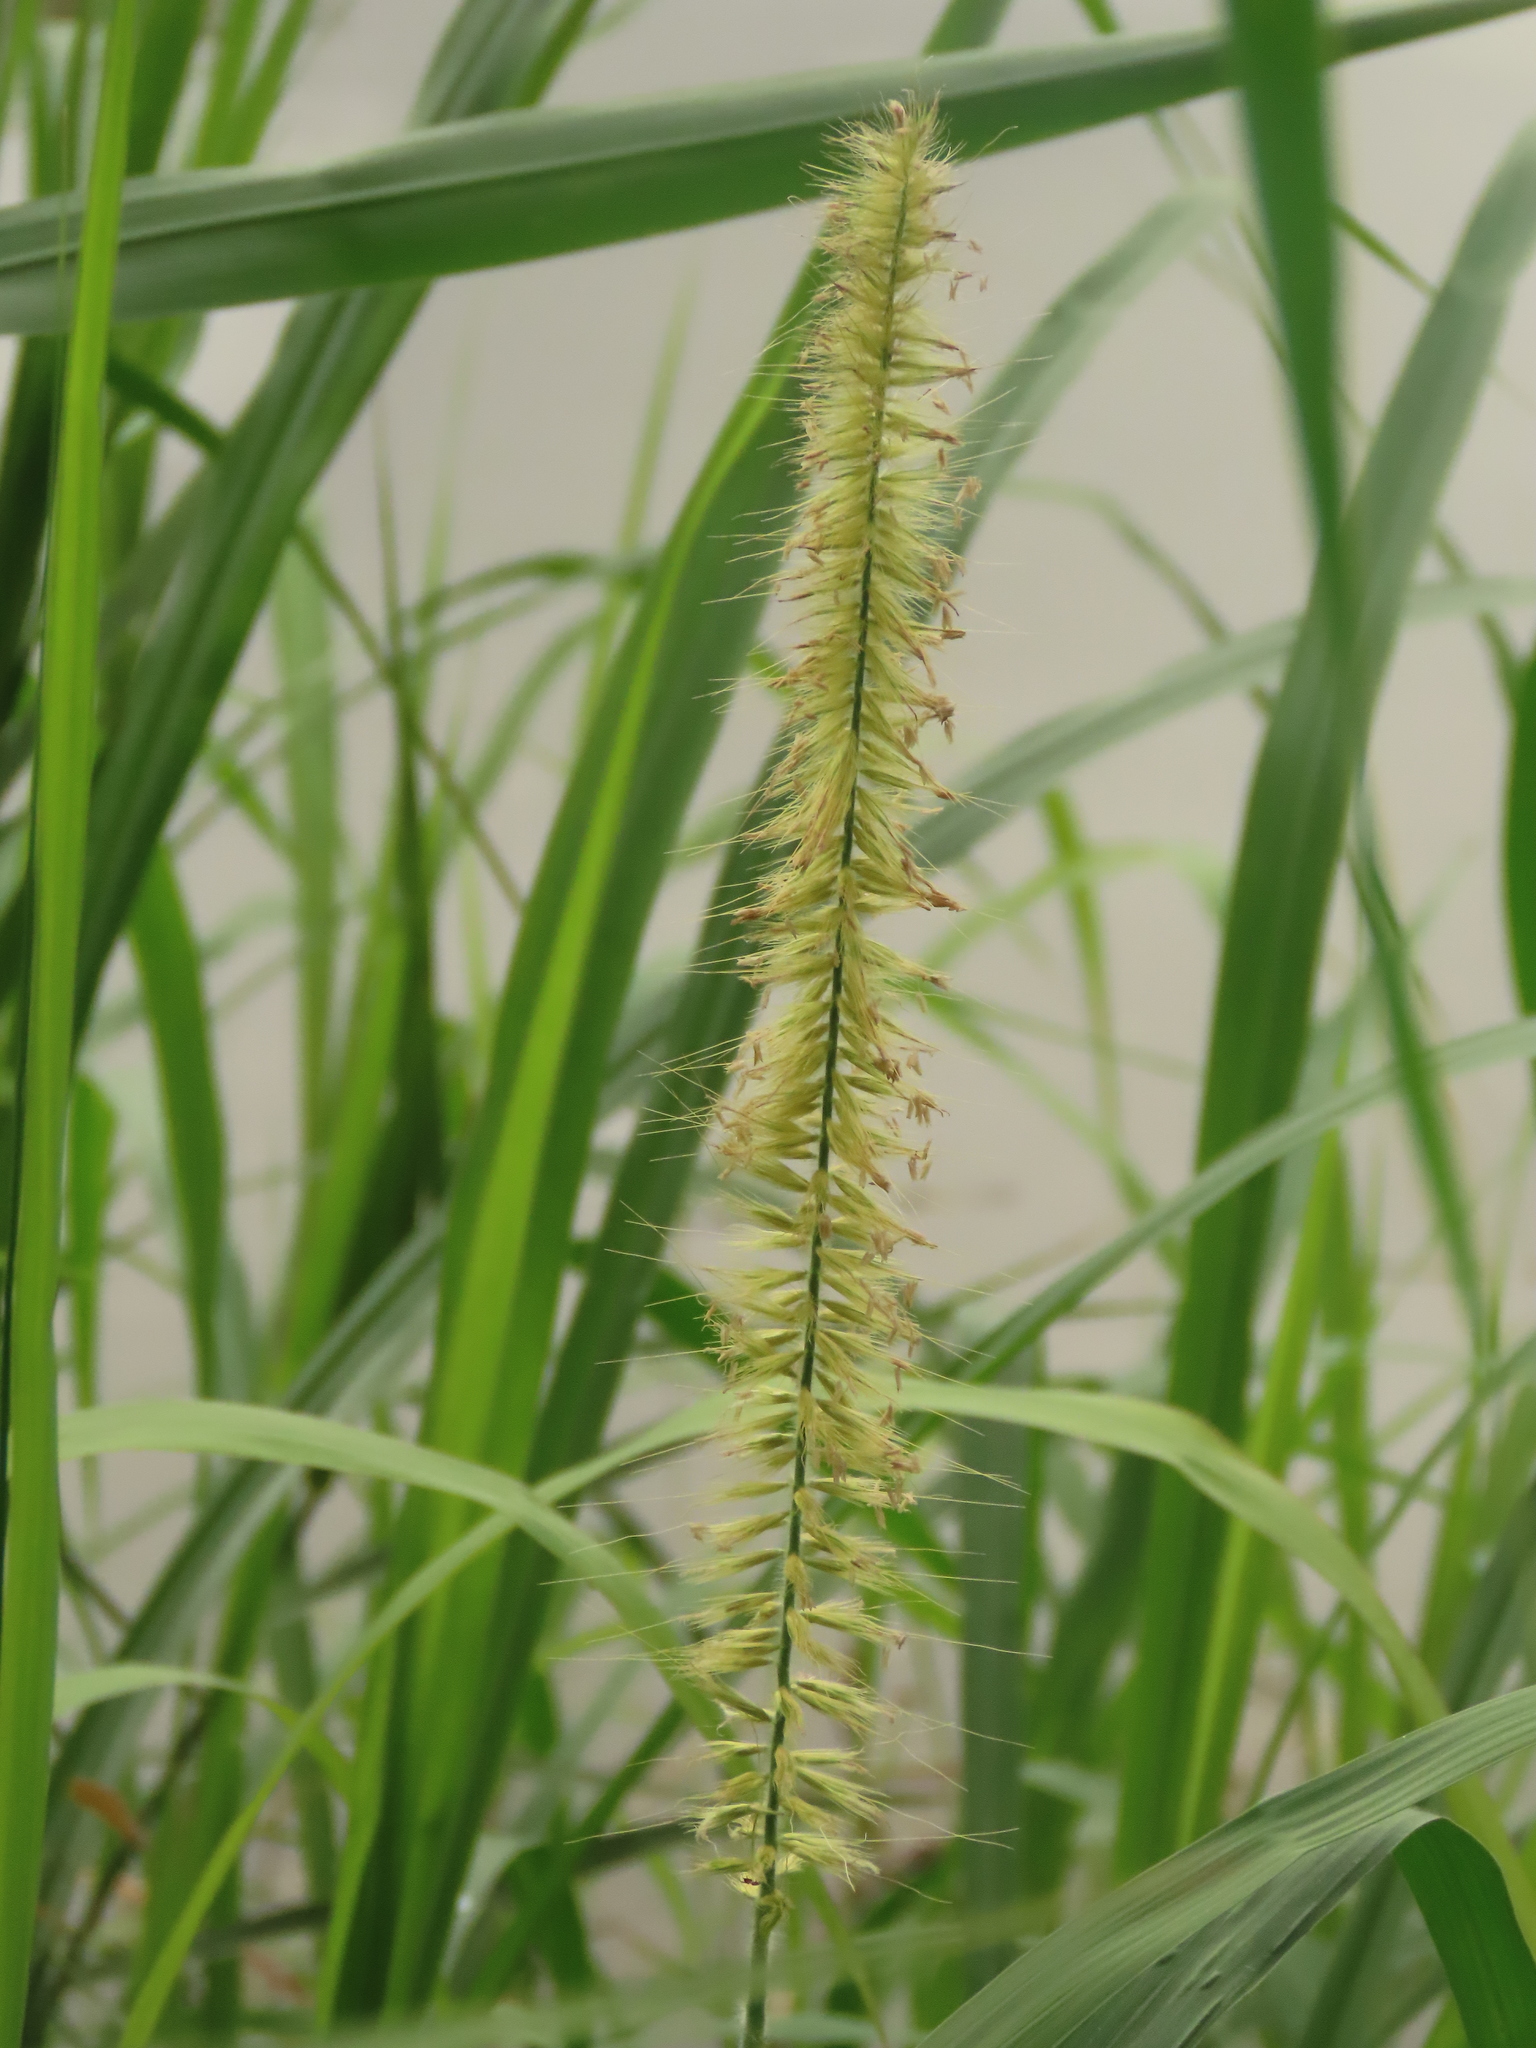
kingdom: Plantae
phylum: Tracheophyta
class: Liliopsida
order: Poales
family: Poaceae
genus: Cenchrus
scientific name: Cenchrus purpureus
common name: Elephant grass
